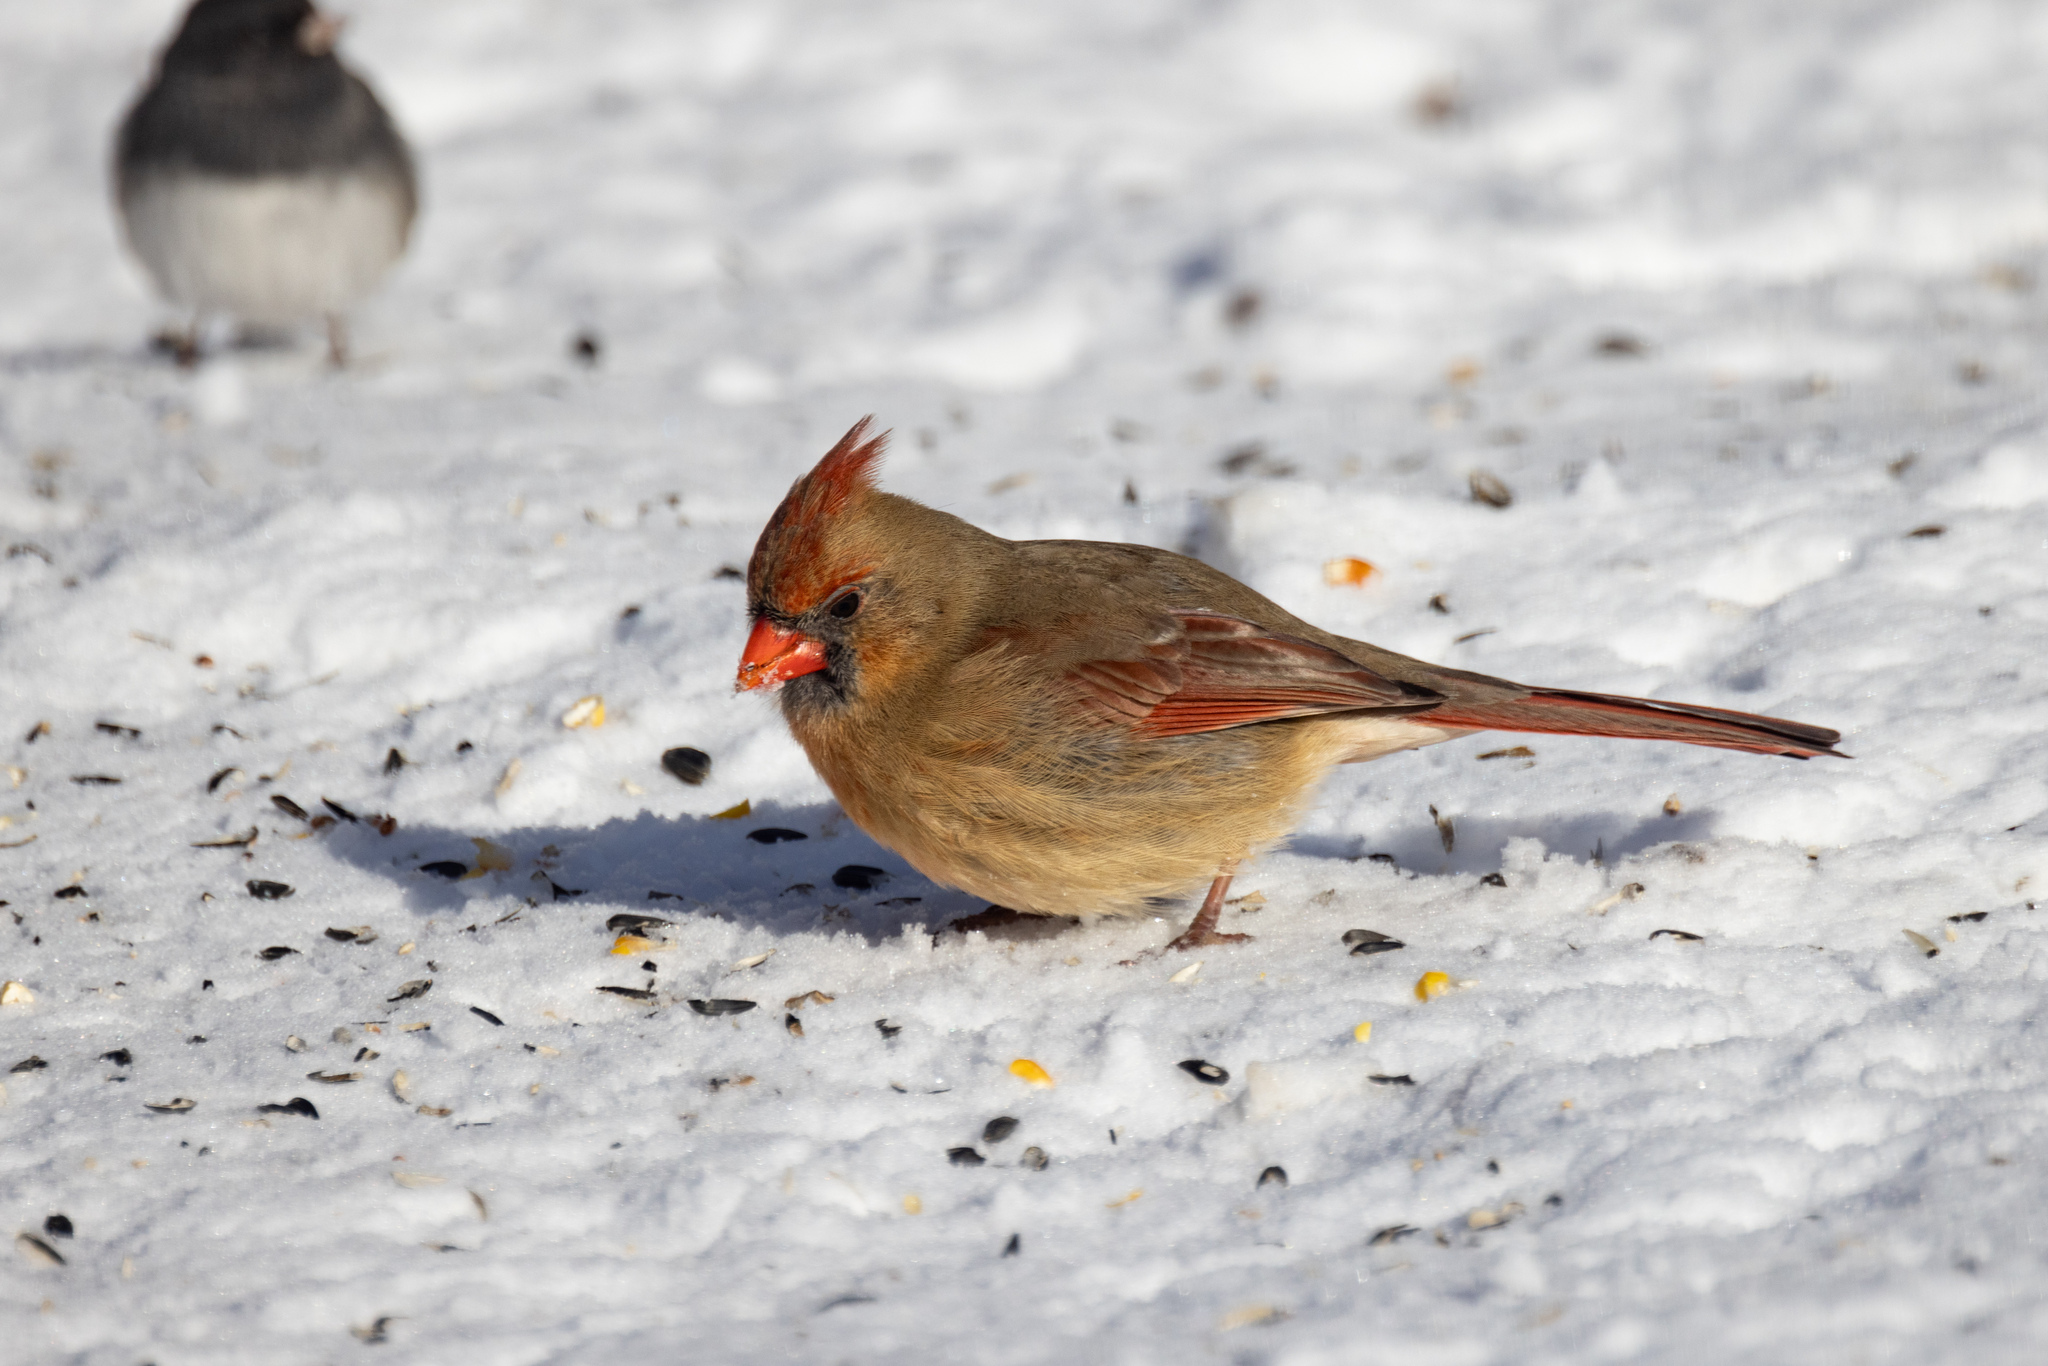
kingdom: Animalia
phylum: Chordata
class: Aves
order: Passeriformes
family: Cardinalidae
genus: Cardinalis
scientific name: Cardinalis cardinalis
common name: Northern cardinal
